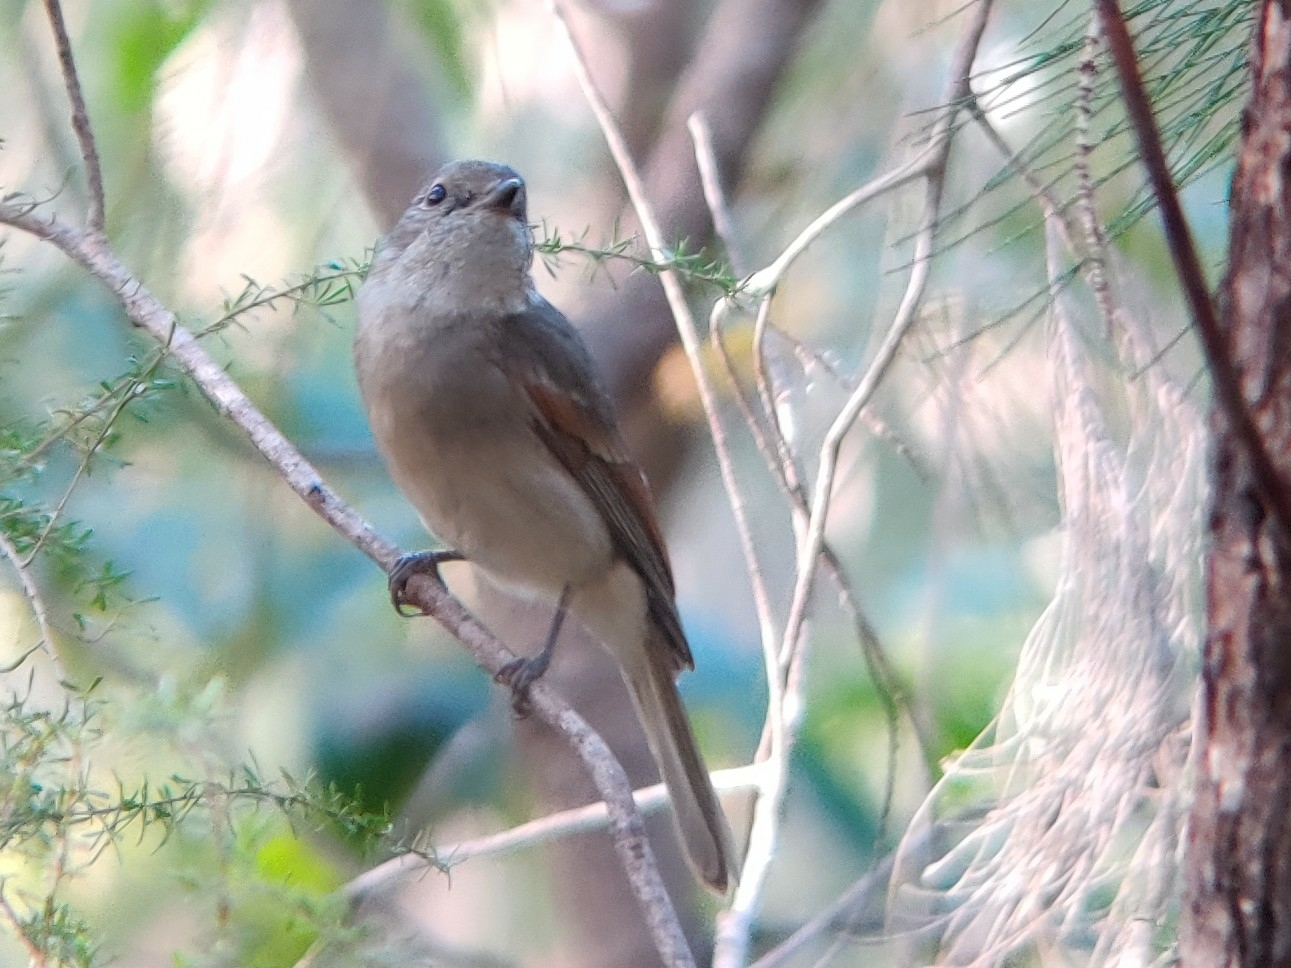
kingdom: Animalia
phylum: Chordata
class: Aves
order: Passeriformes
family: Pachycephalidae
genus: Pachycephala
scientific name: Pachycephala pectoralis
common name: Australian golden whistler
